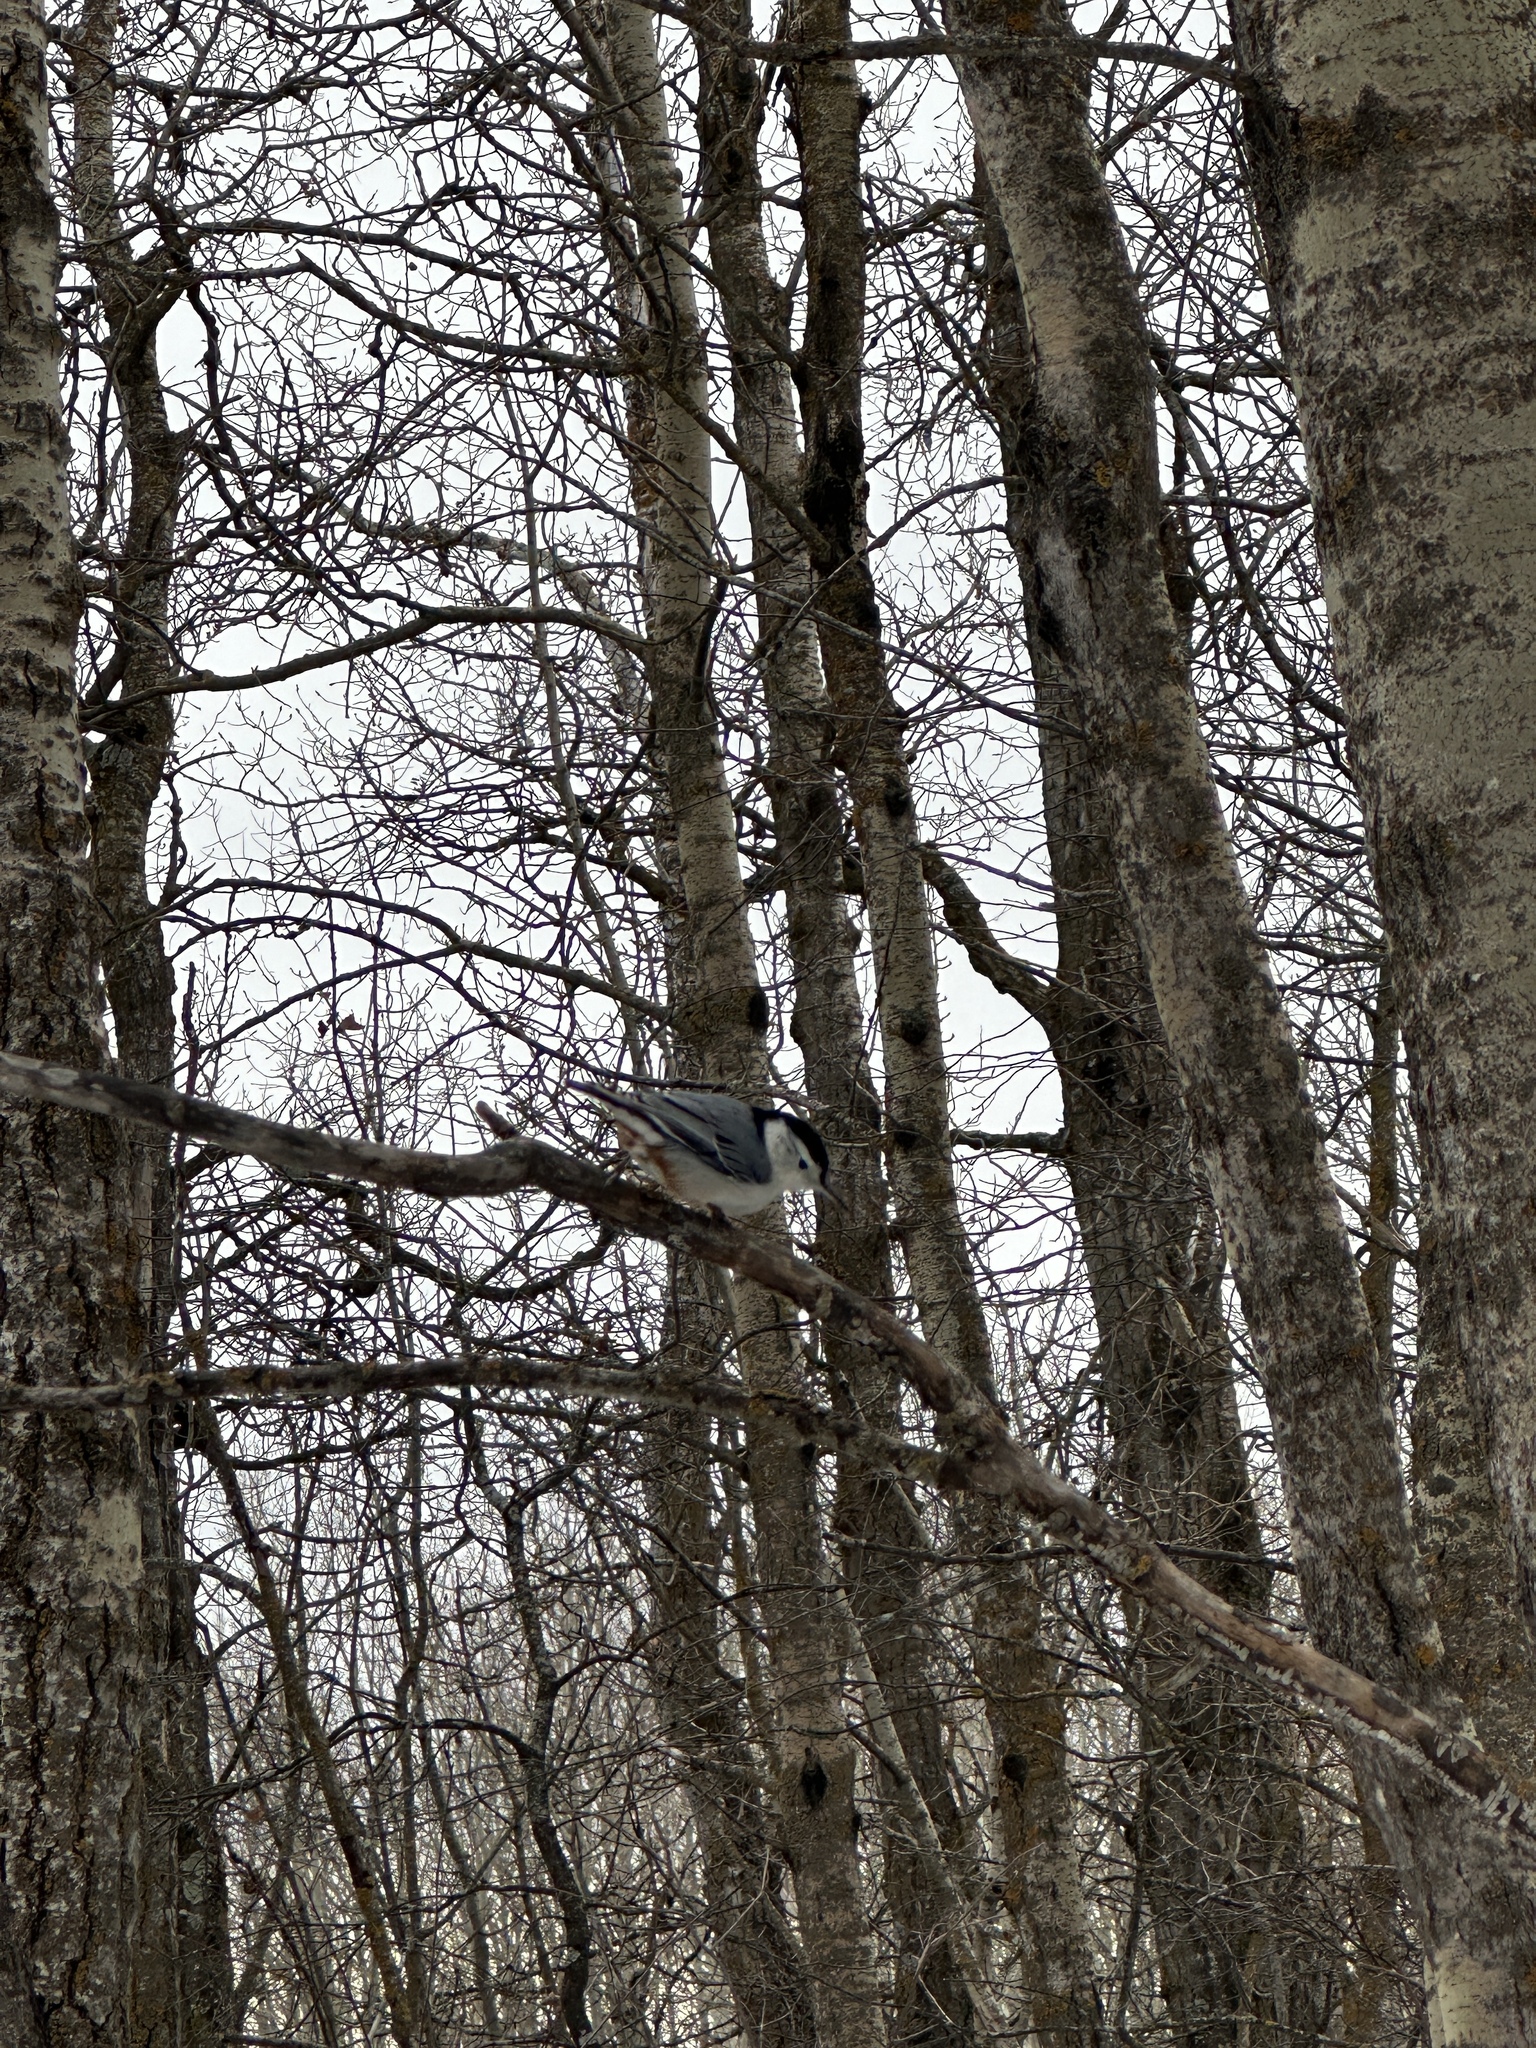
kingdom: Animalia
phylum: Chordata
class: Aves
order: Passeriformes
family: Sittidae
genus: Sitta
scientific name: Sitta carolinensis
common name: White-breasted nuthatch
